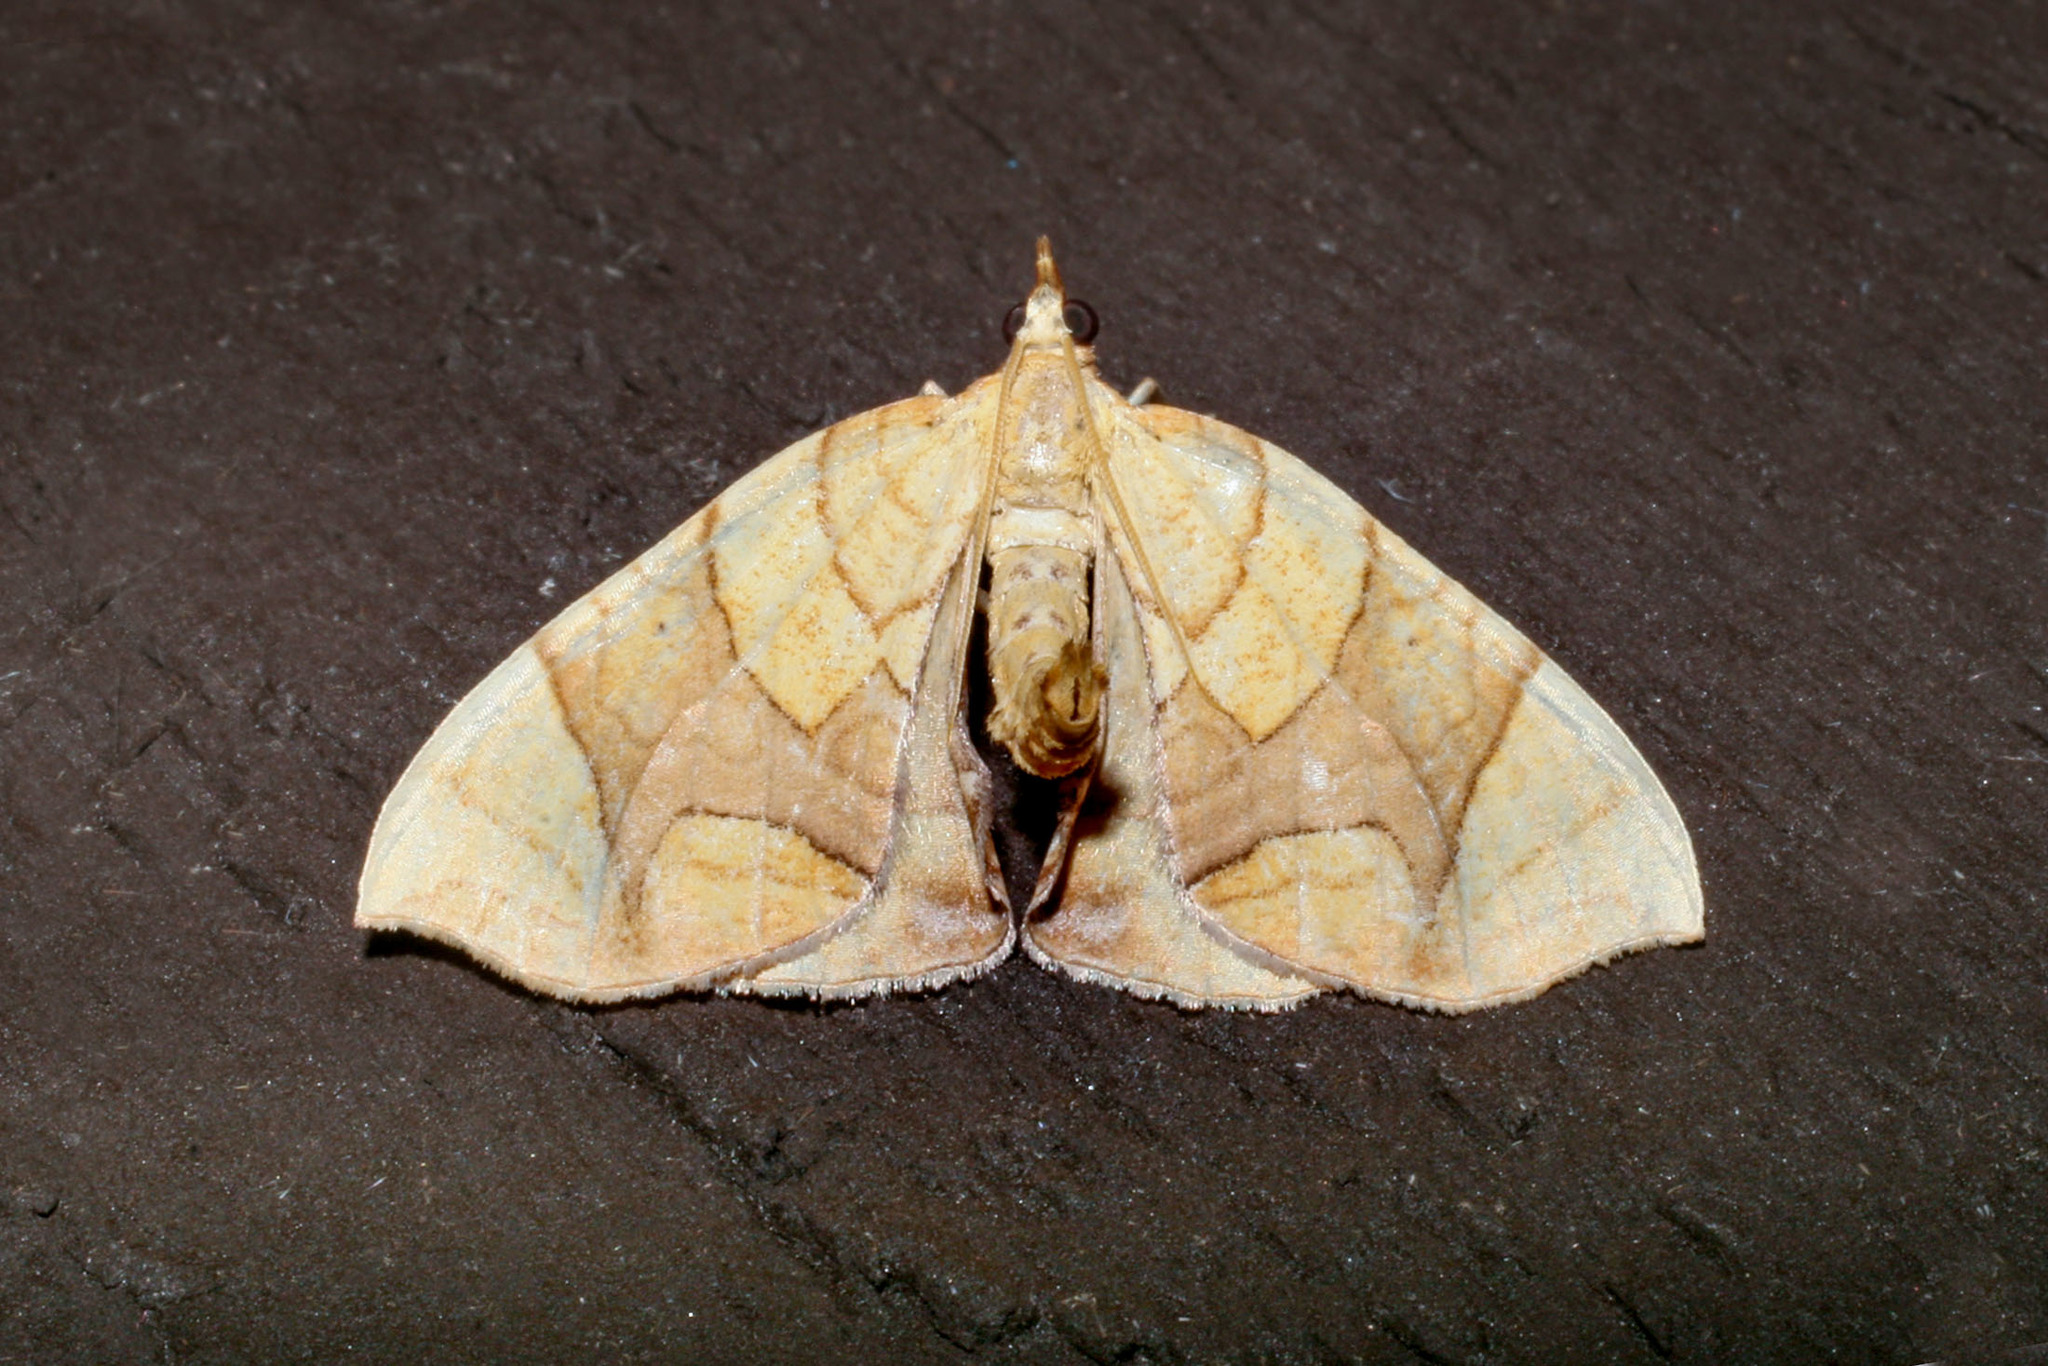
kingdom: Animalia
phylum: Arthropoda
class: Insecta
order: Lepidoptera
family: Geometridae
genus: Eulithis
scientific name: Eulithis diversilineata
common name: Grapevine looper
